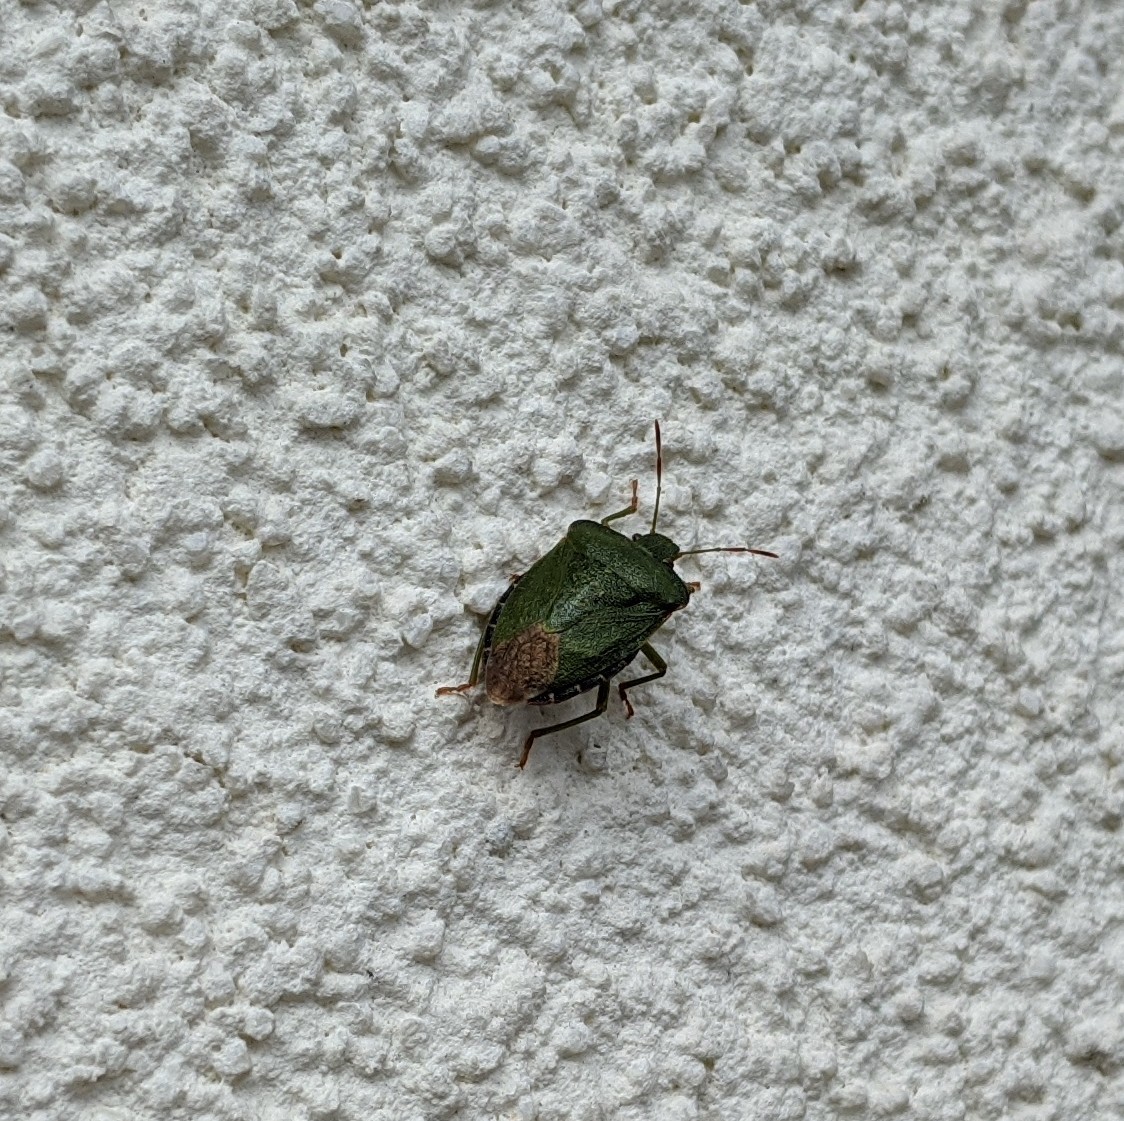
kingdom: Animalia
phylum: Arthropoda
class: Insecta
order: Hemiptera
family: Pentatomidae
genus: Palomena
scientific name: Palomena prasina
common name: Green shieldbug
